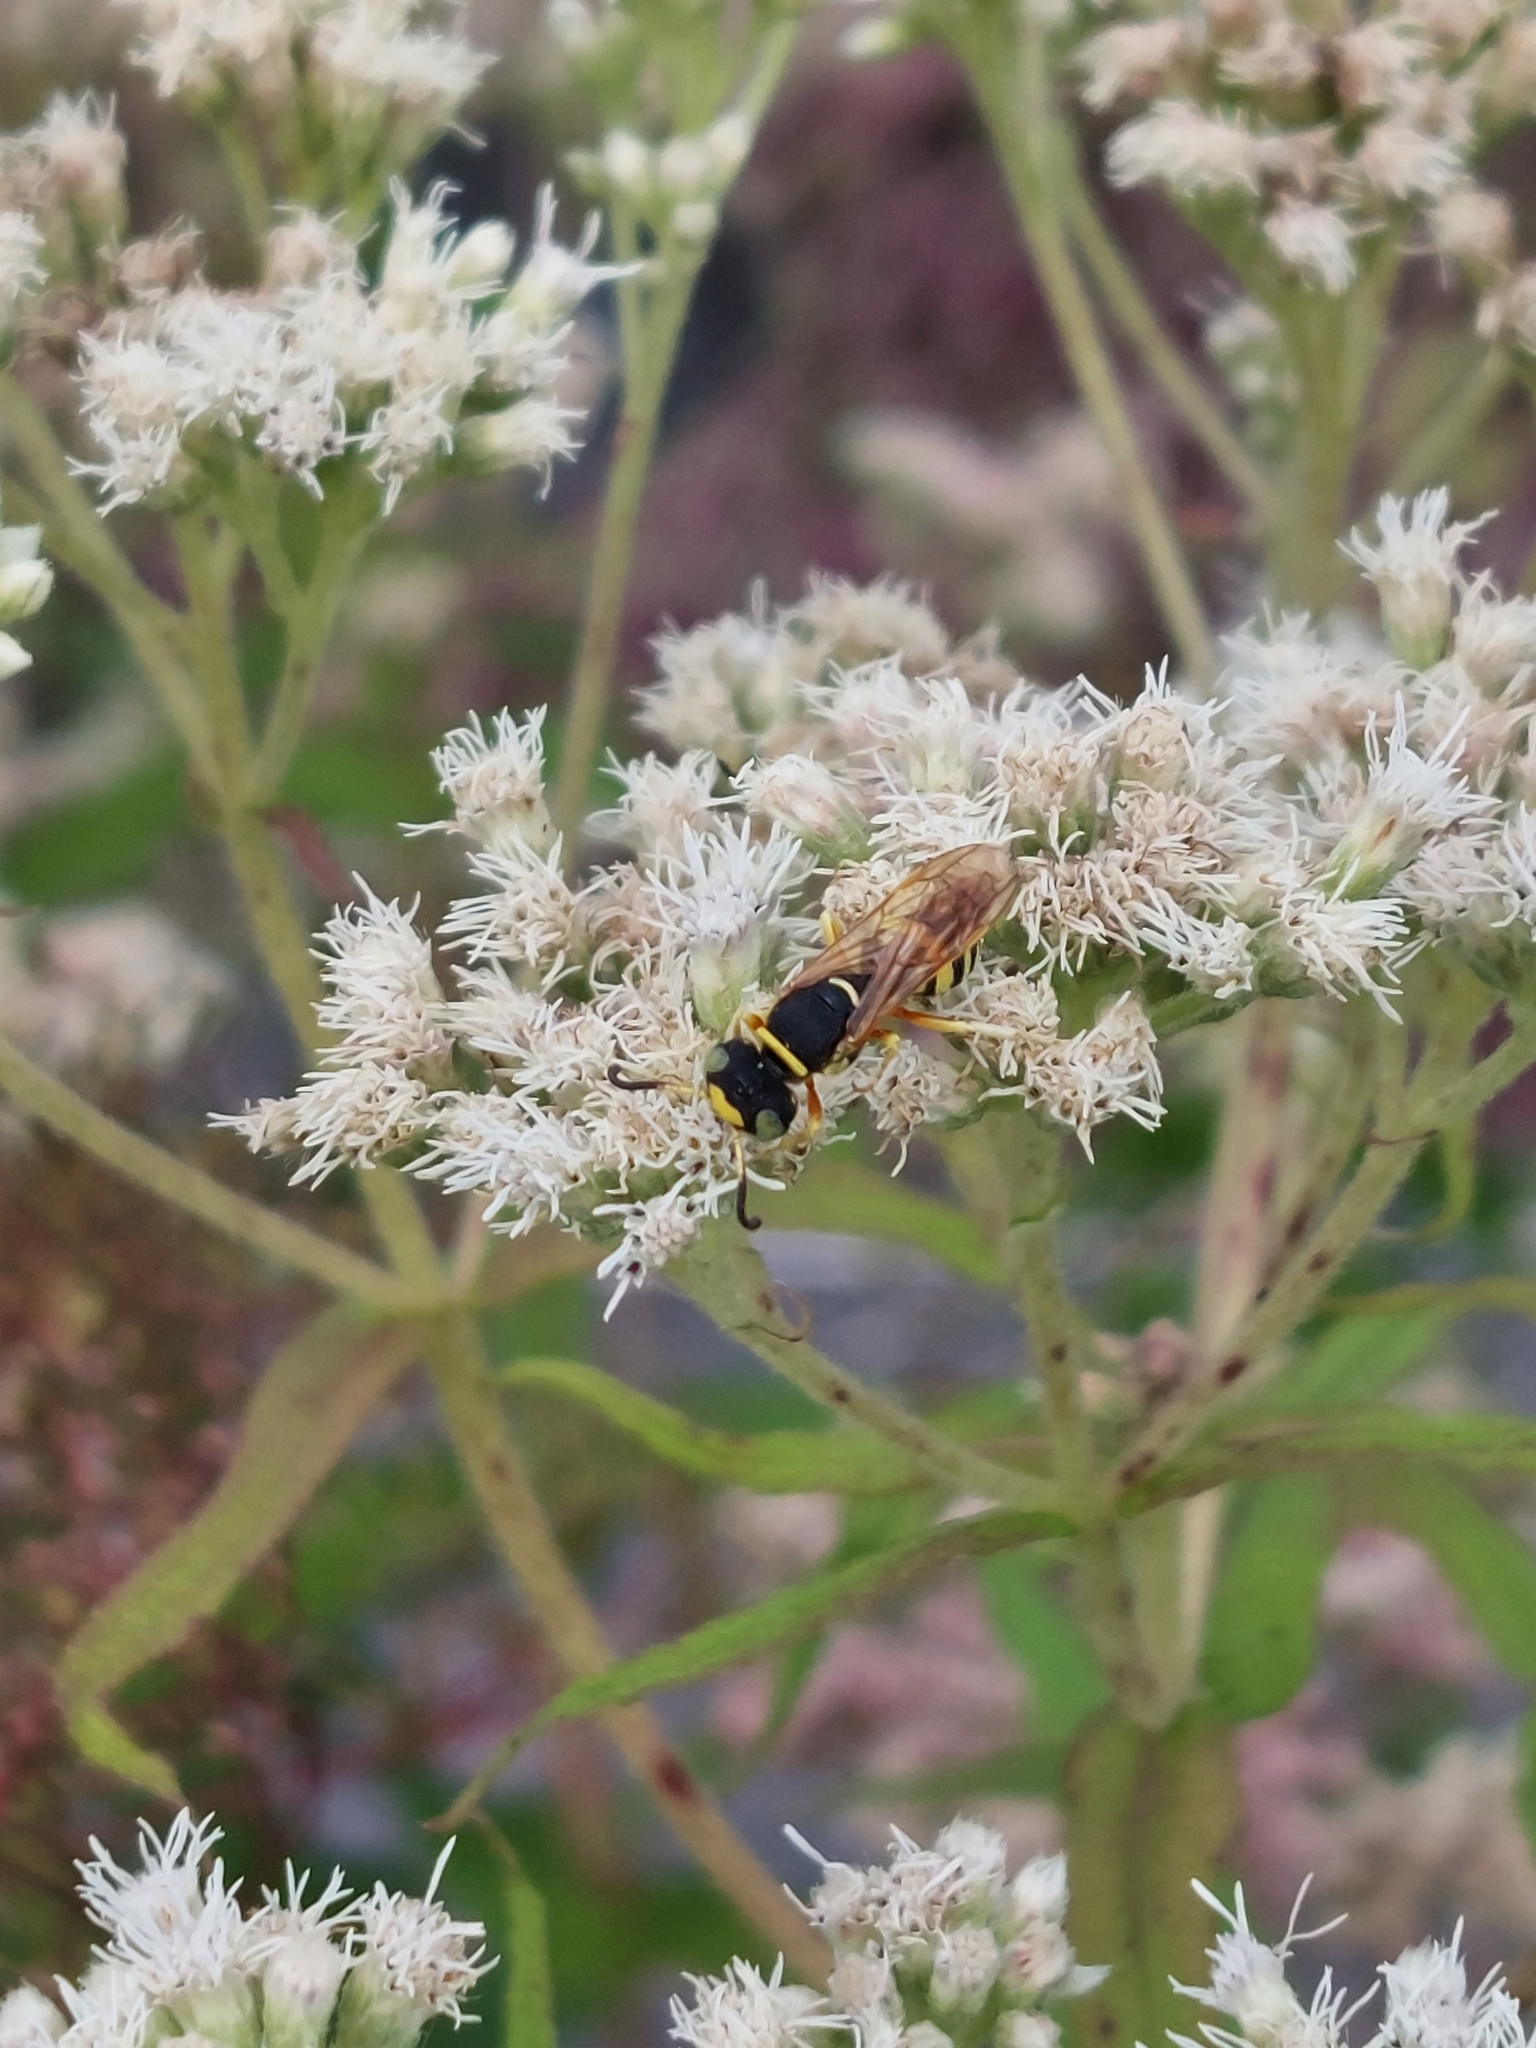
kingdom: Animalia
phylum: Arthropoda
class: Insecta
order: Hymenoptera
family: Crabronidae
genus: Philanthus
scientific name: Philanthus ventilabris
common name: Bee-killer wasp
